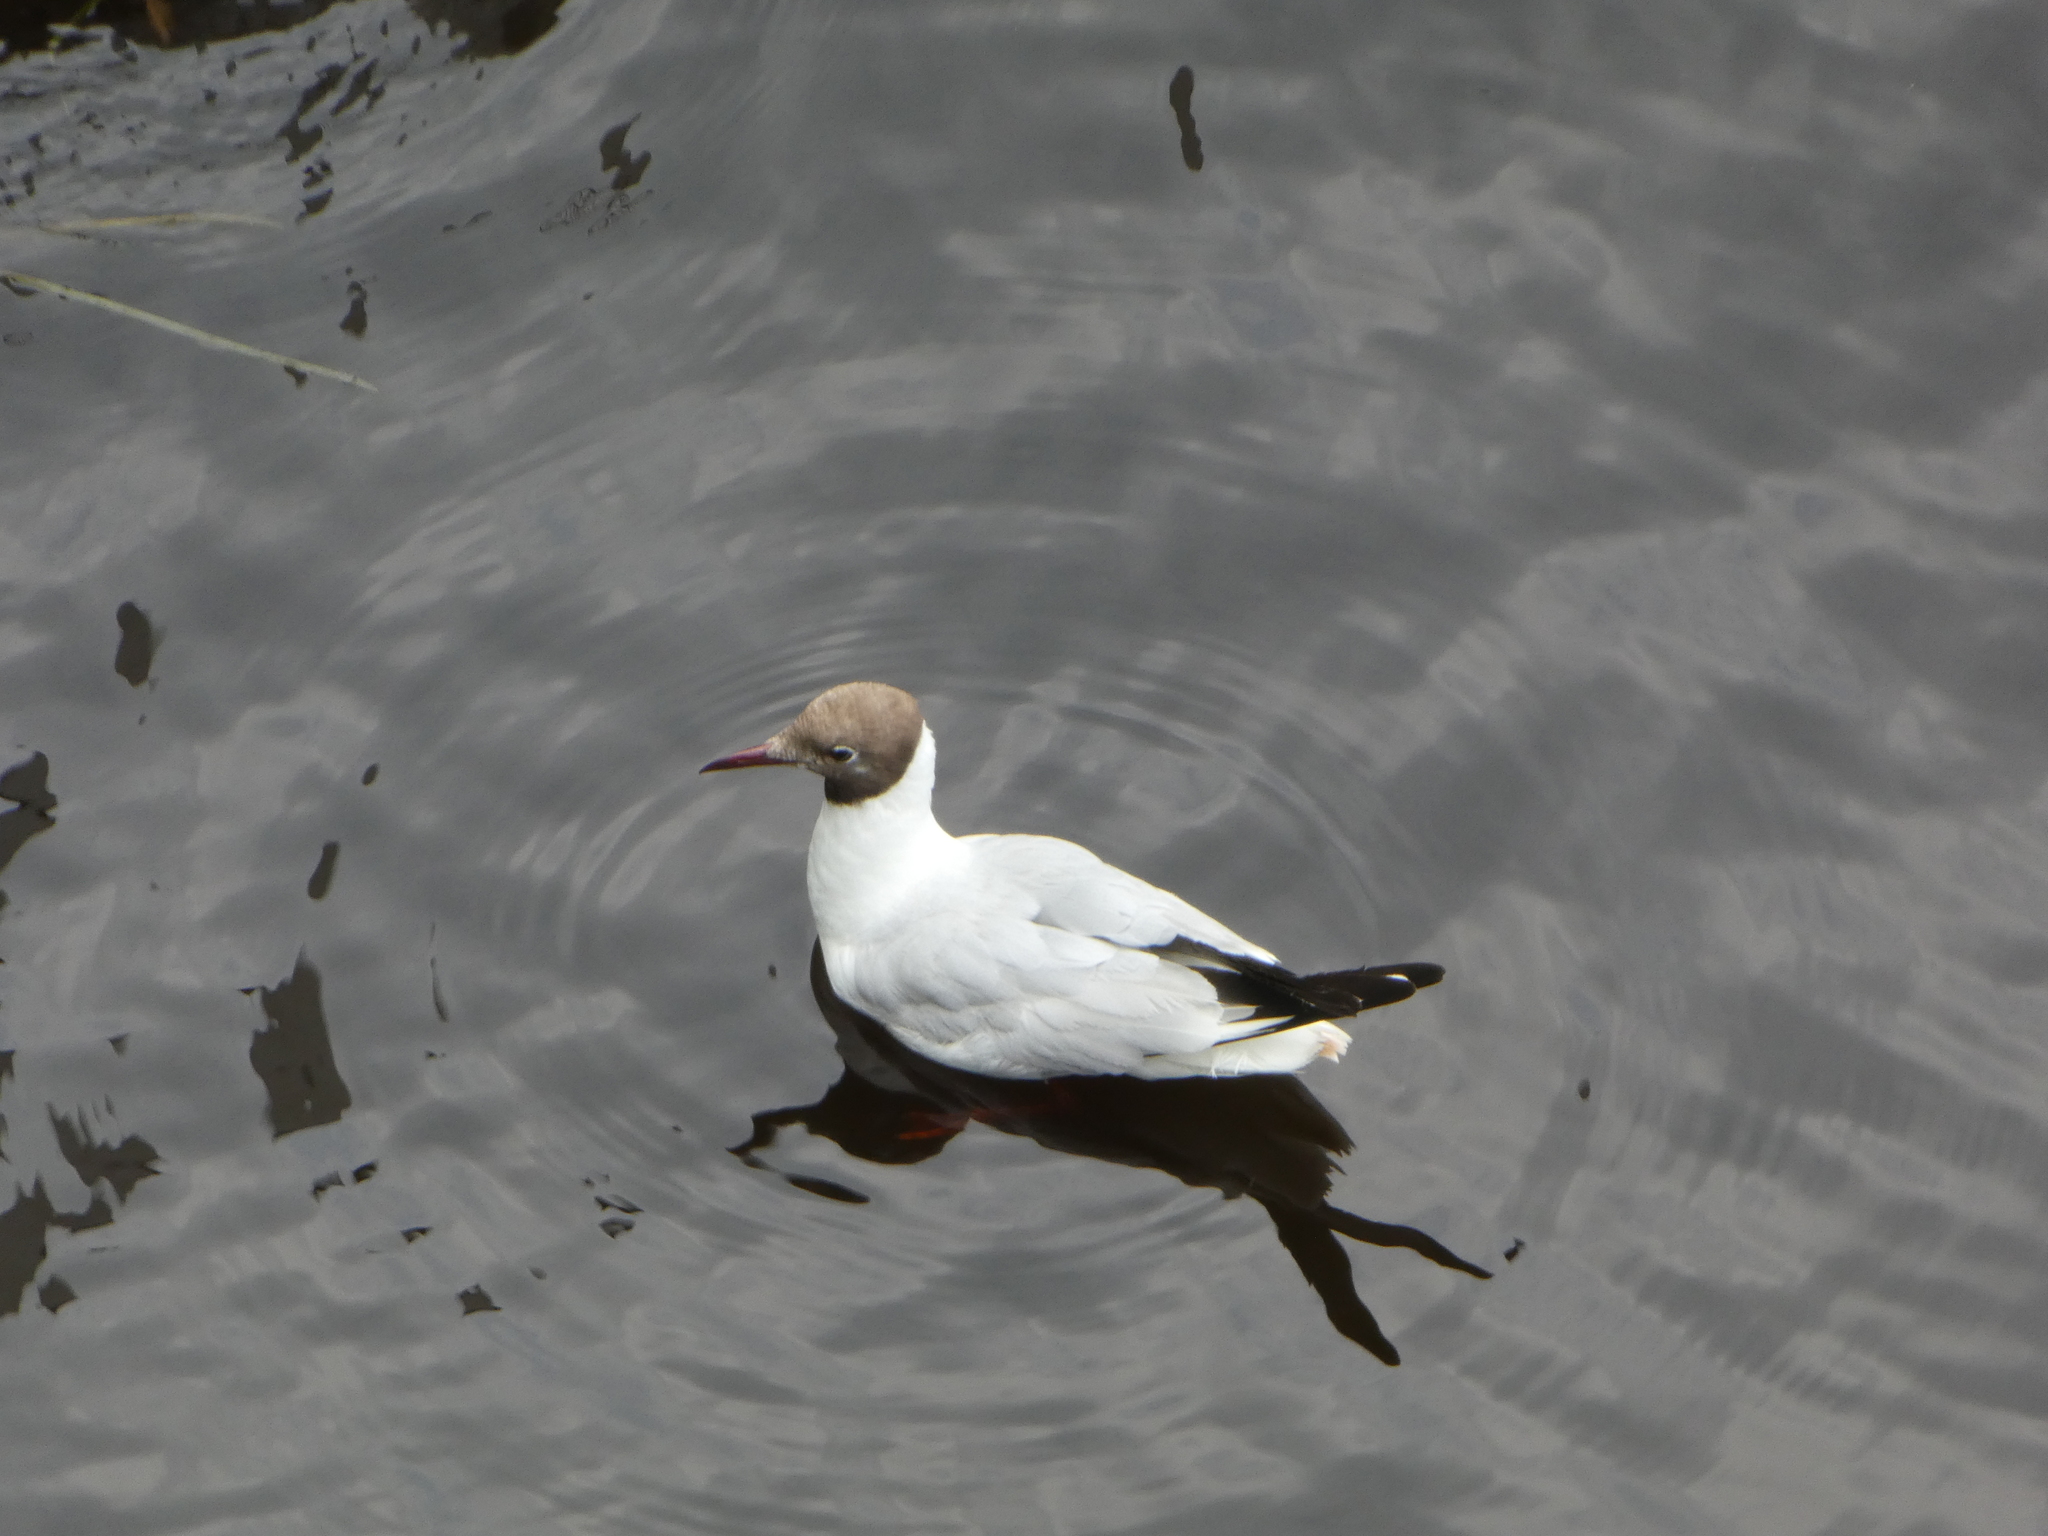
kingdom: Animalia
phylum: Chordata
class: Aves
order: Charadriiformes
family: Laridae
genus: Chroicocephalus
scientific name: Chroicocephalus ridibundus
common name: Black-headed gull
